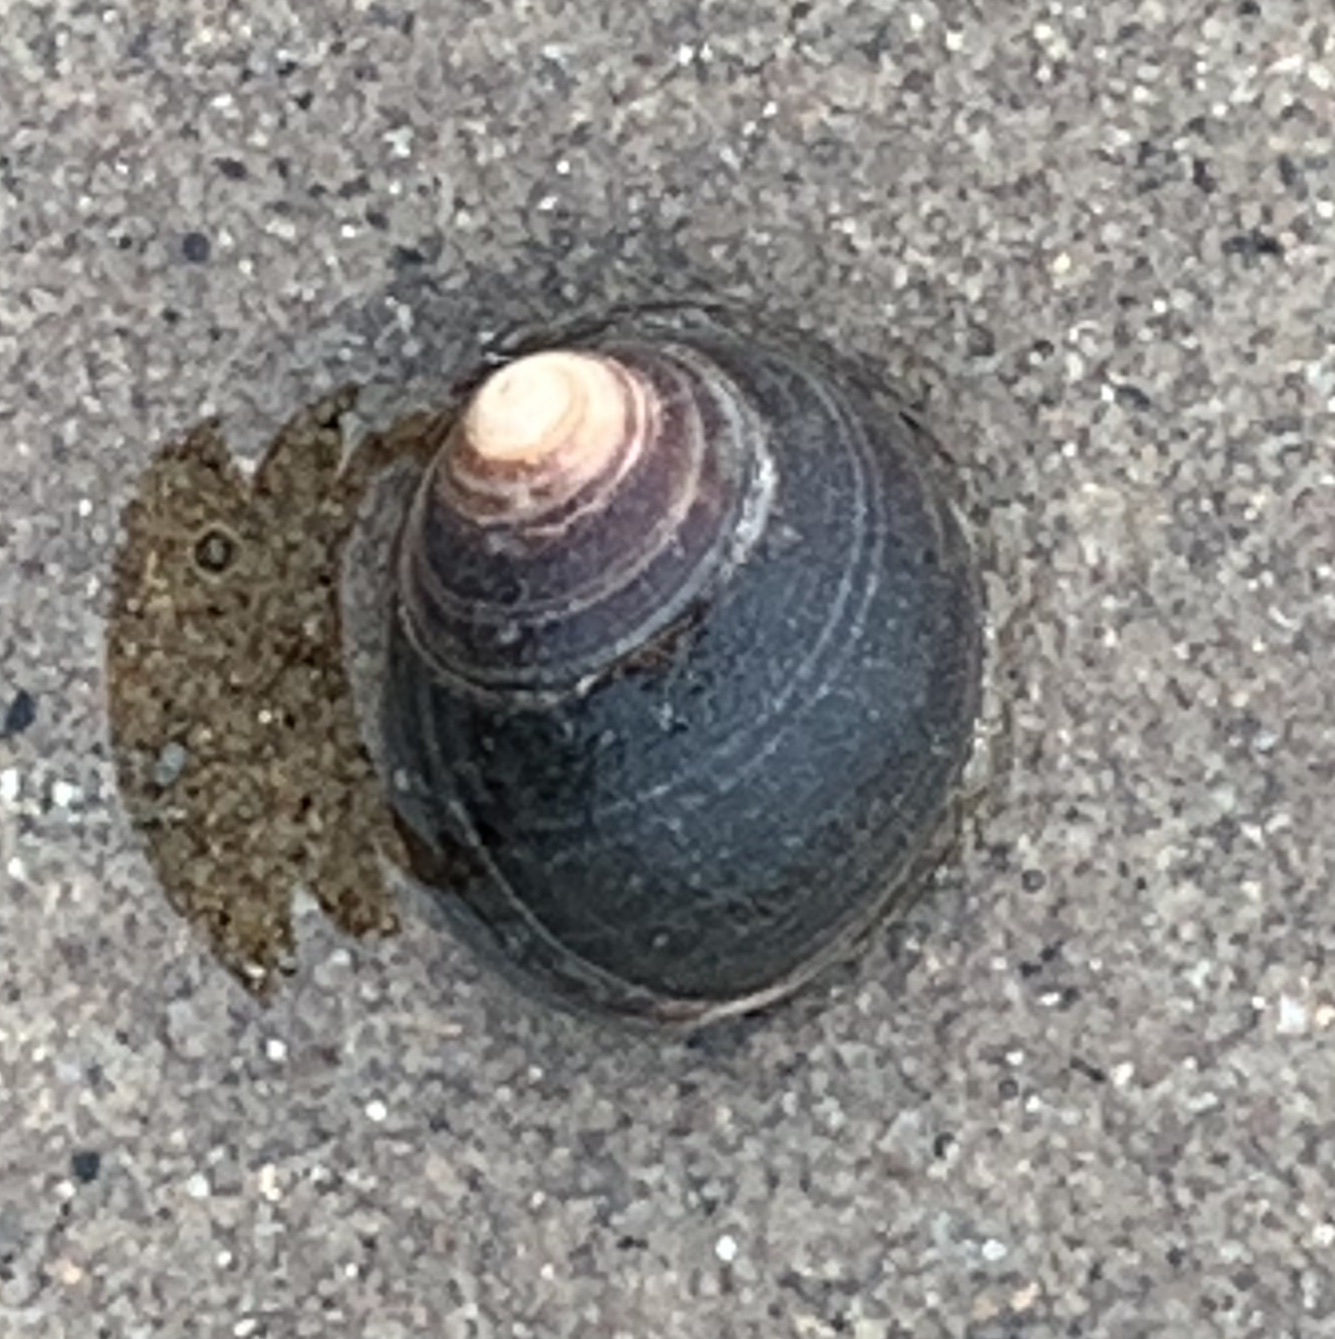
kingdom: Animalia
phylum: Mollusca
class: Gastropoda
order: Littorinimorpha
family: Littorinidae
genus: Littorina
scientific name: Littorina littorea
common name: Common periwinkle
